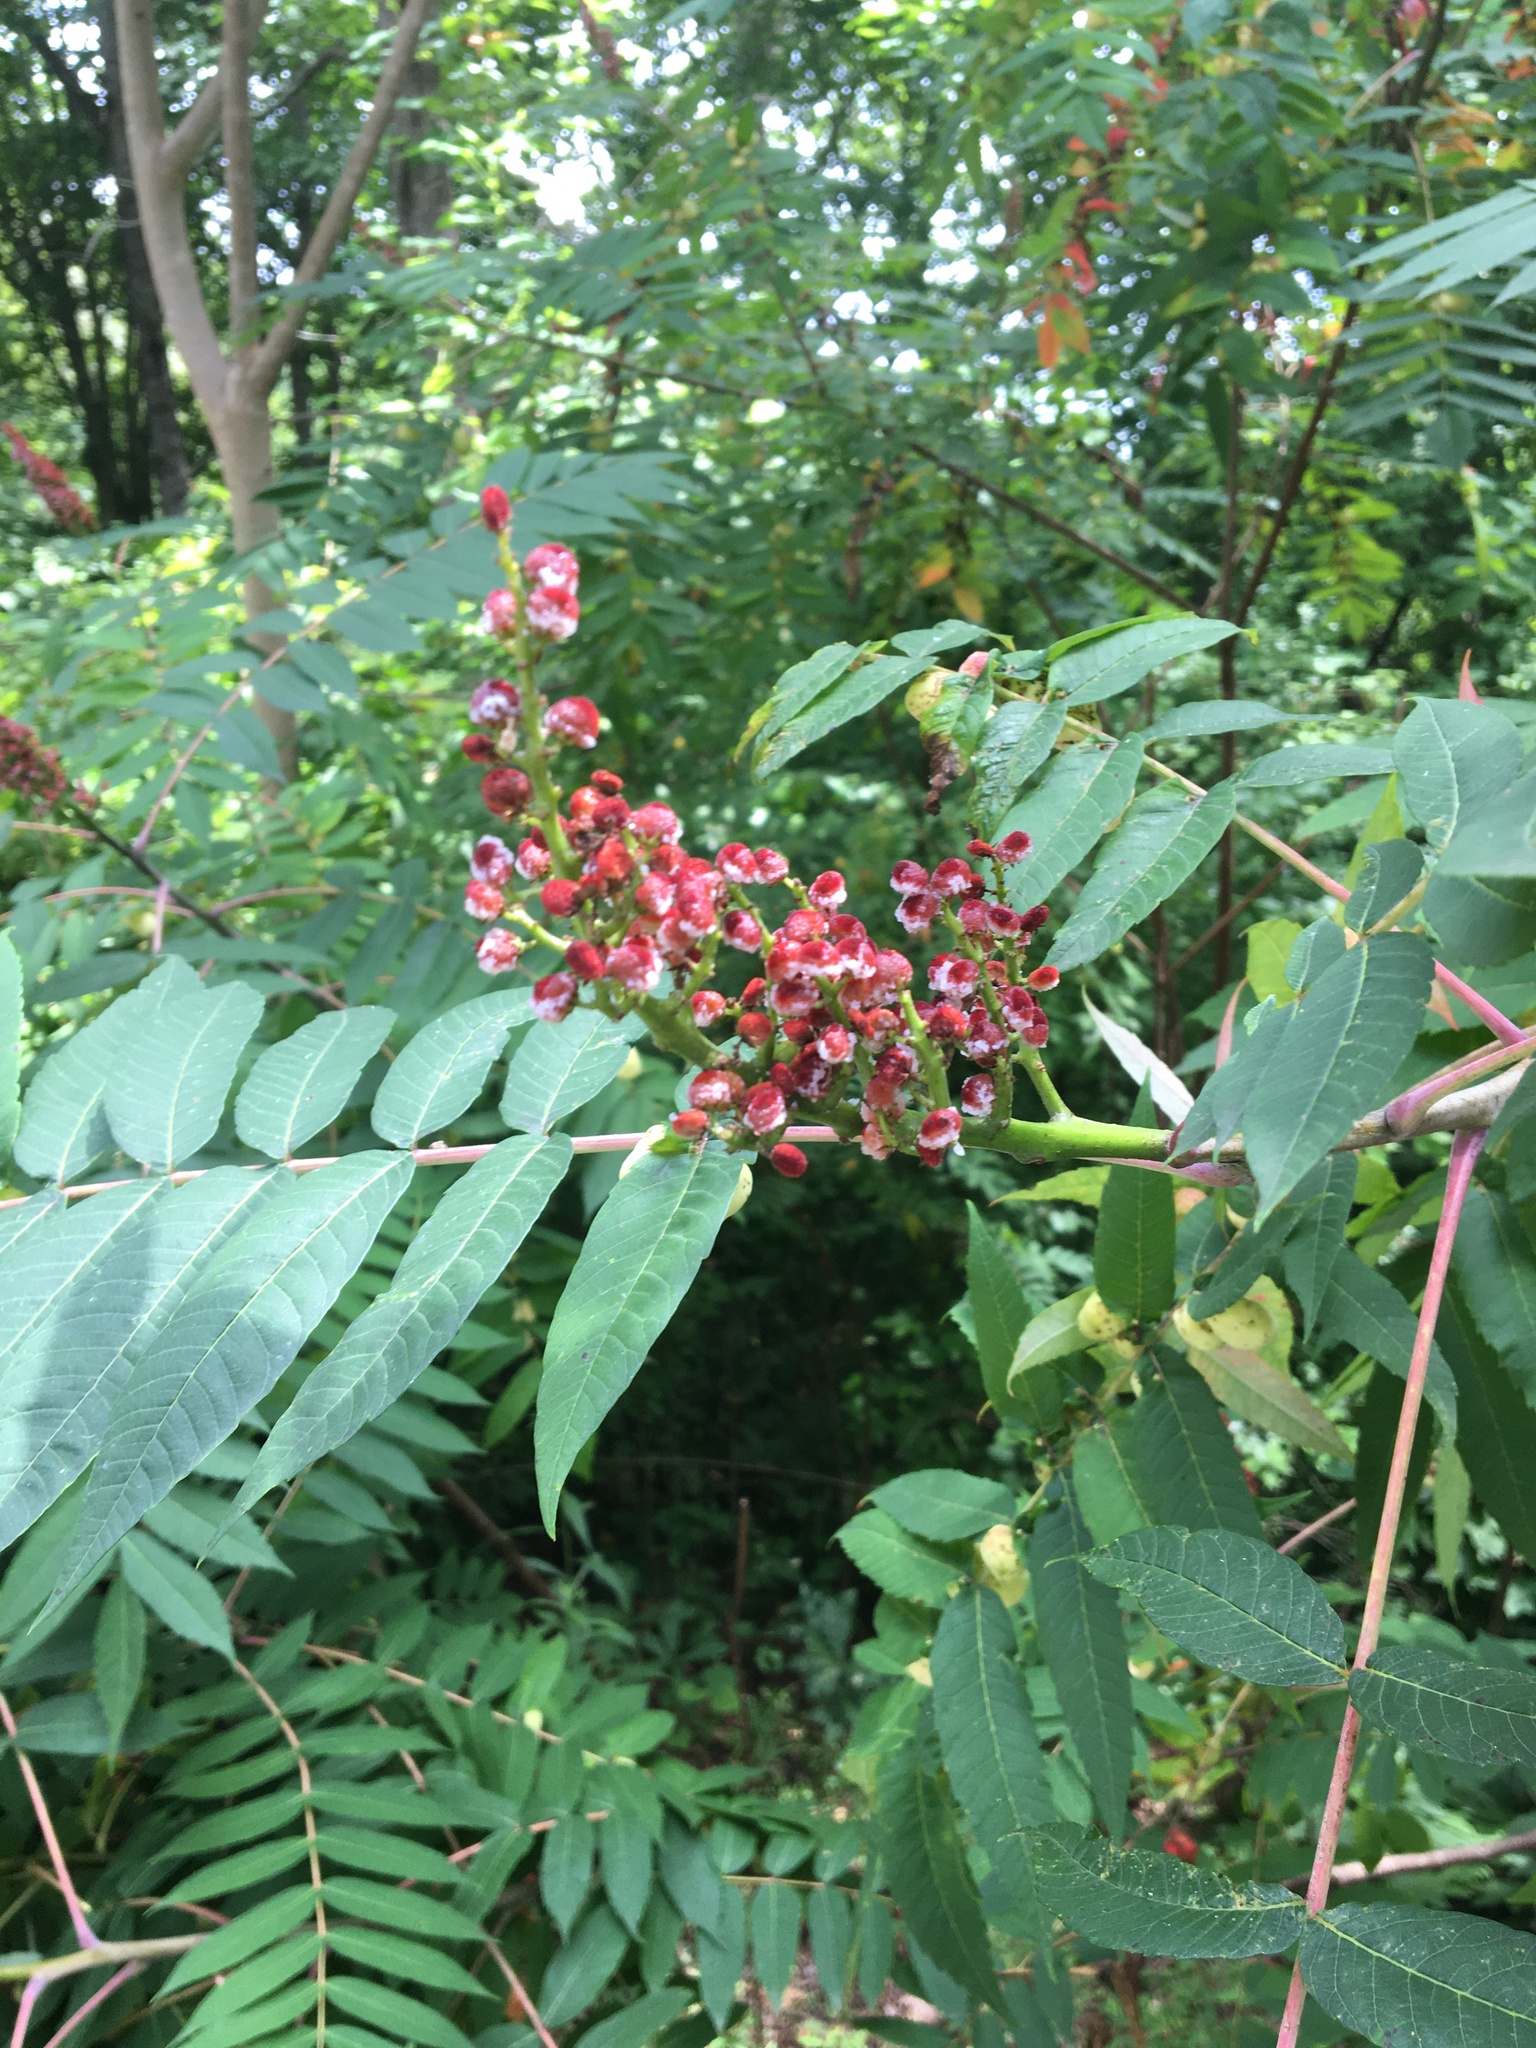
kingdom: Plantae
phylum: Tracheophyta
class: Magnoliopsida
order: Sapindales
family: Anacardiaceae
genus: Rhus
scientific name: Rhus glabra
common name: Scarlet sumac
